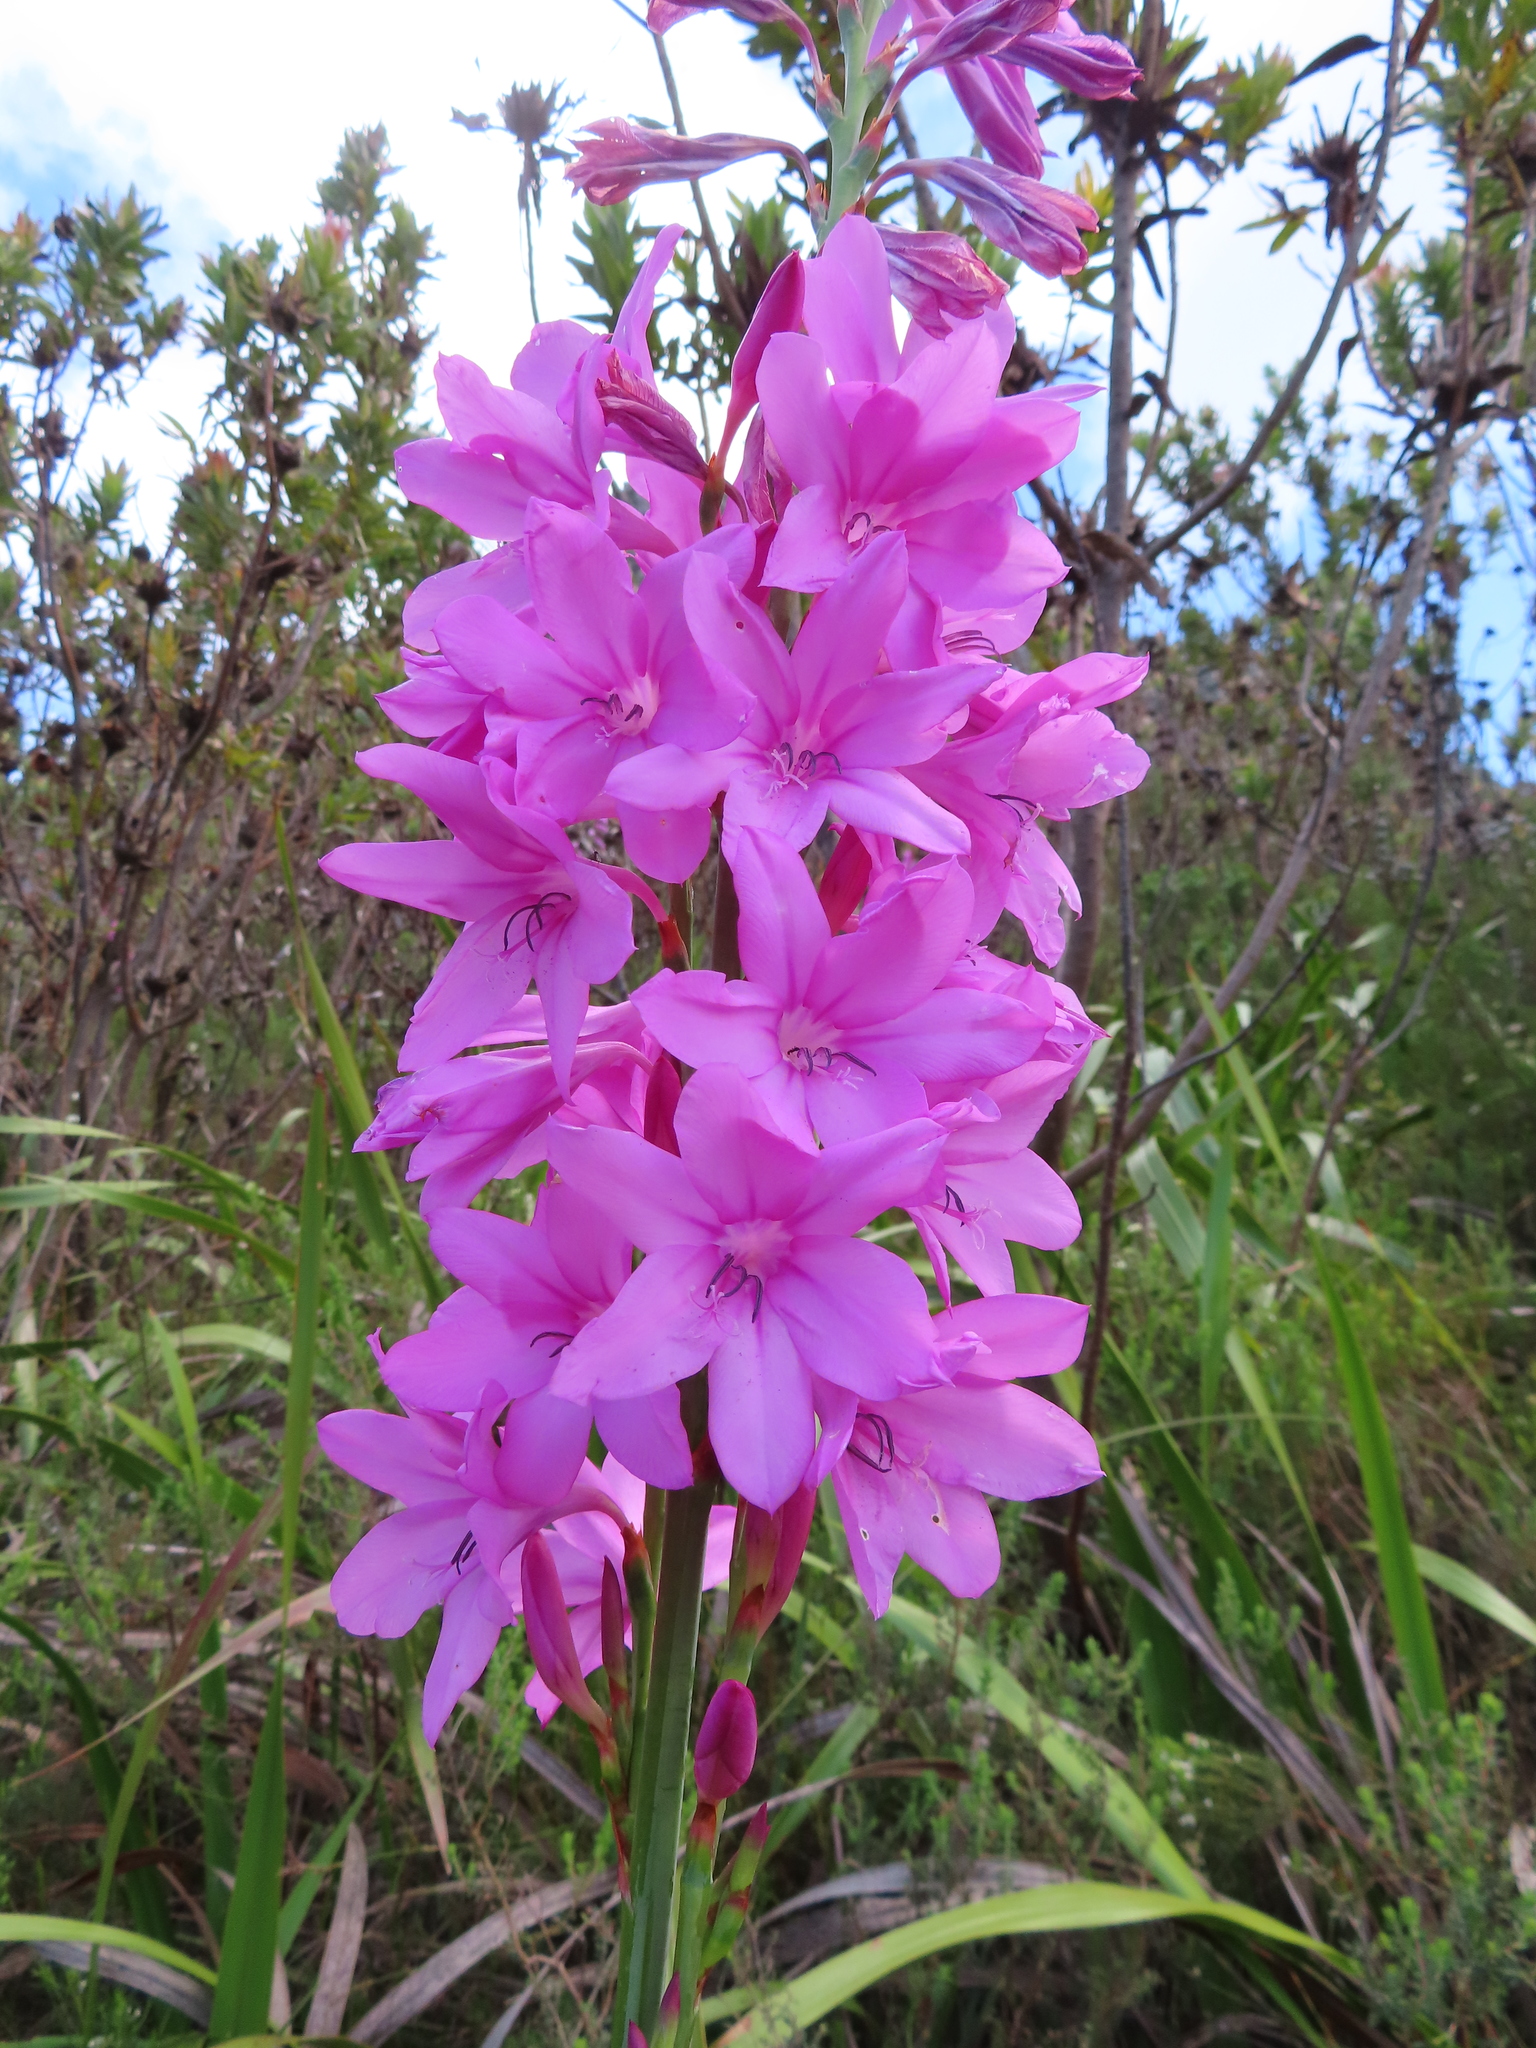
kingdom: Plantae
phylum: Tracheophyta
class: Liliopsida
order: Asparagales
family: Iridaceae
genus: Watsonia
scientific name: Watsonia borbonica
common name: Bugle-lily
